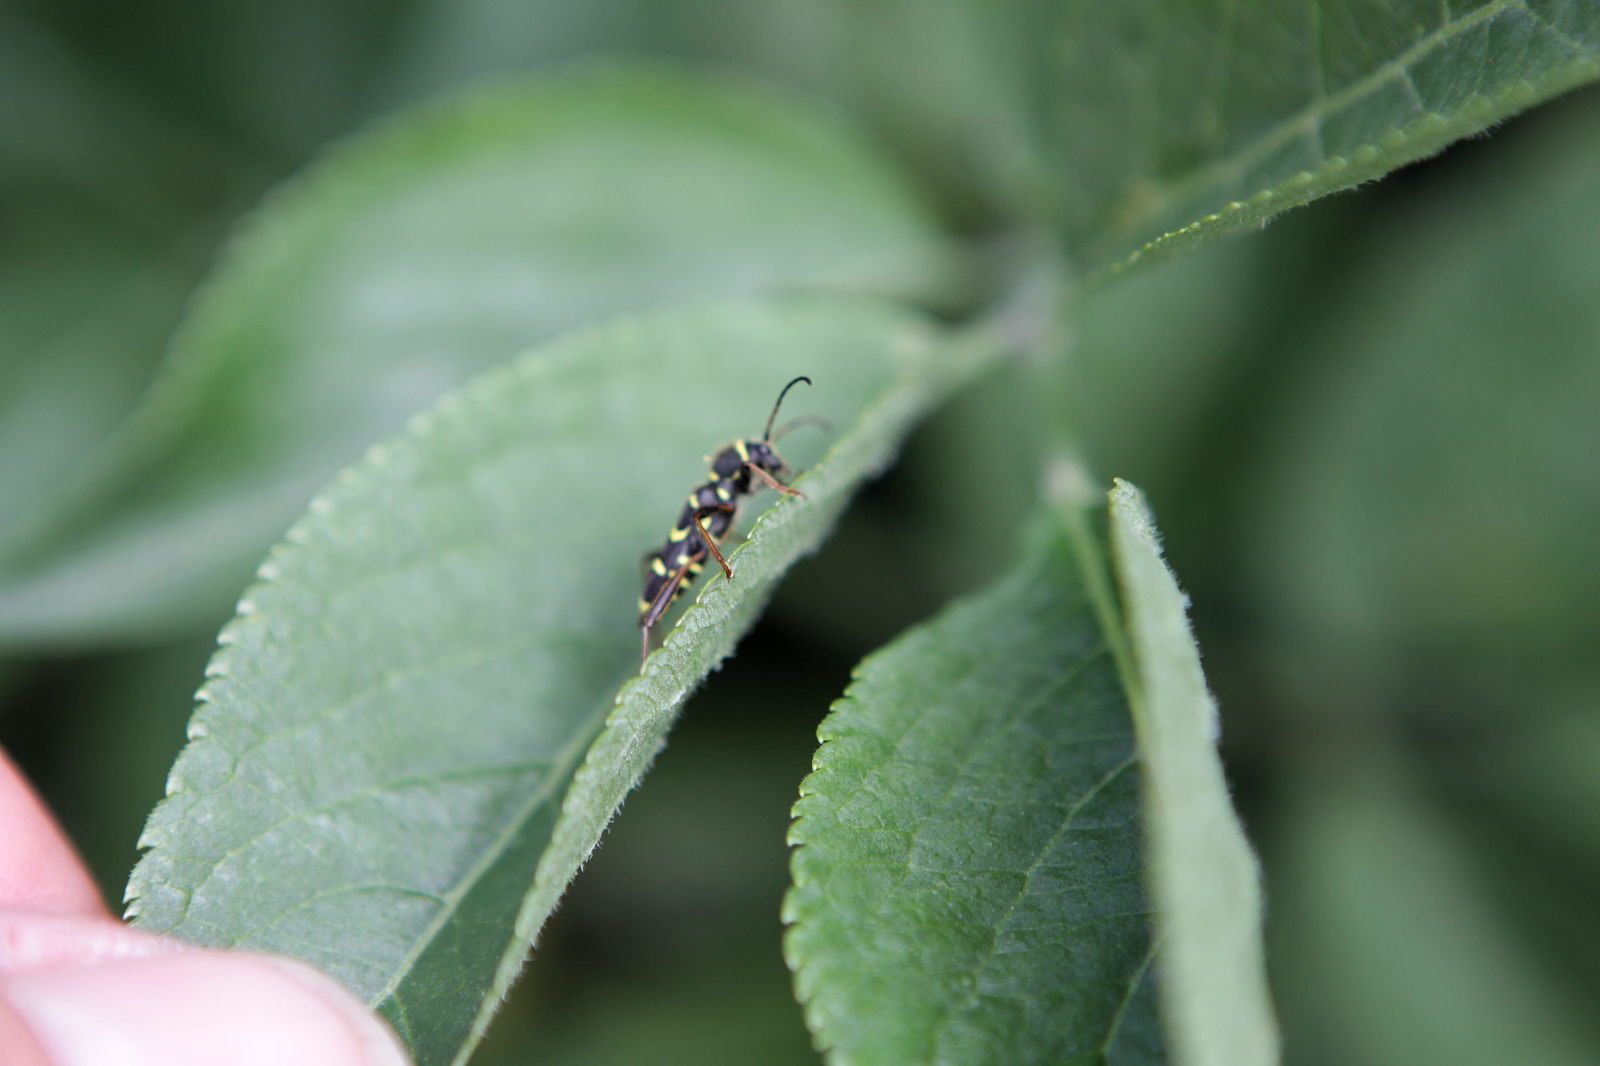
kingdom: Animalia
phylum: Arthropoda
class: Insecta
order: Coleoptera
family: Cerambycidae
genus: Clytus
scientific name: Clytus arietis
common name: Wasp beetle
